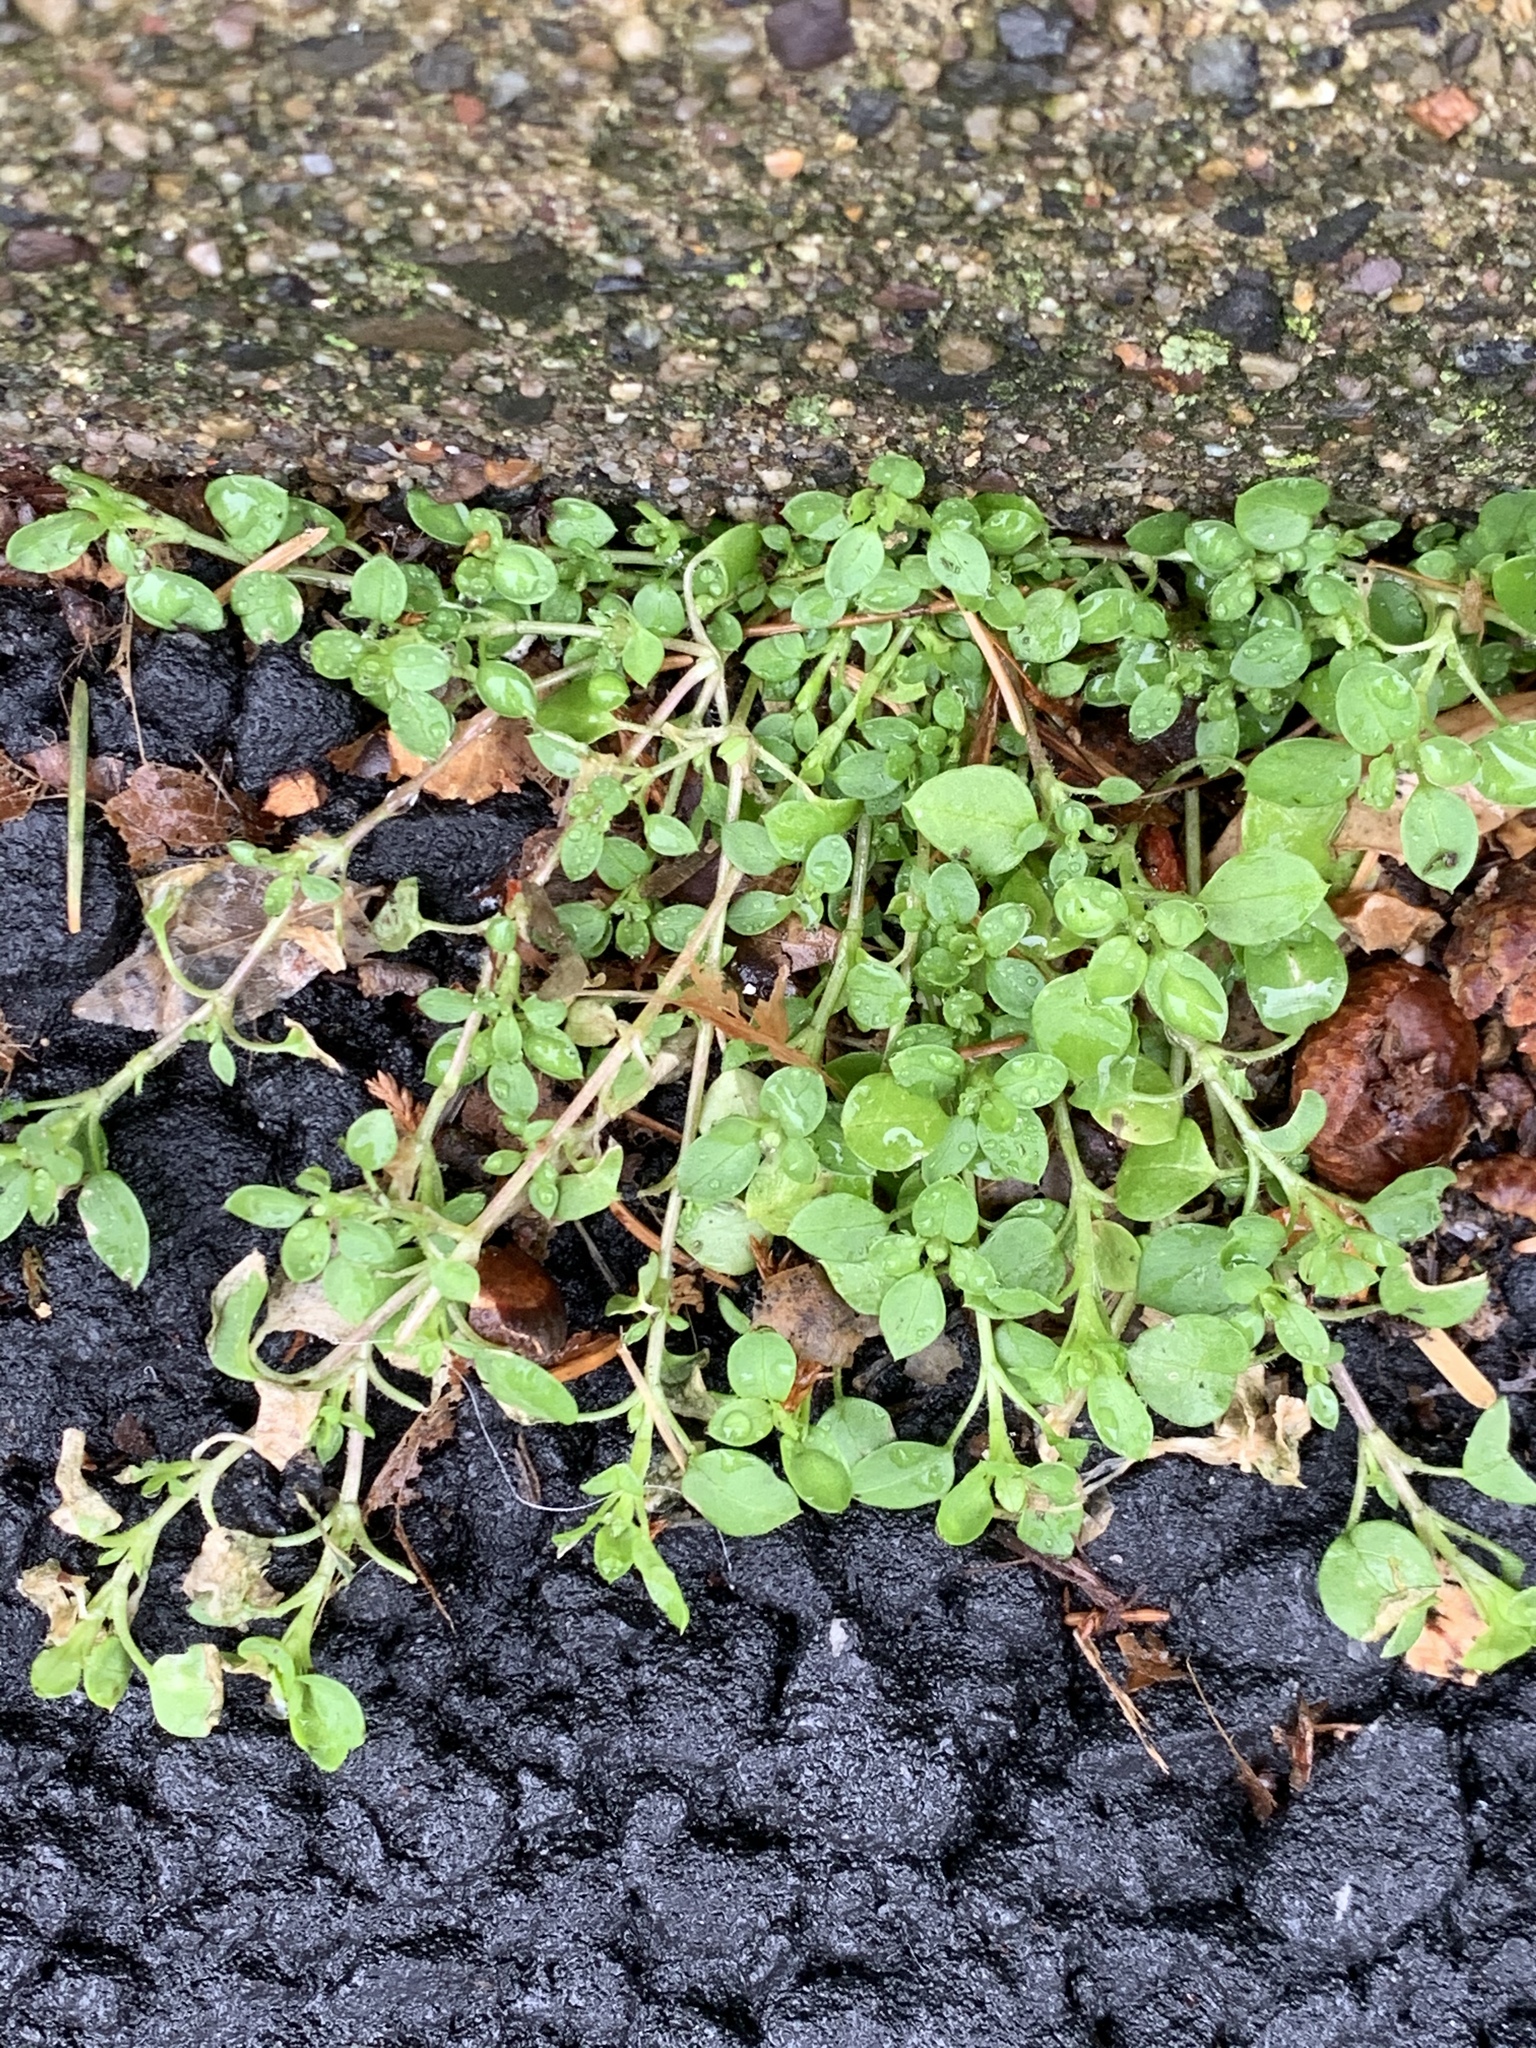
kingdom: Plantae
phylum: Tracheophyta
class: Magnoliopsida
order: Caryophyllales
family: Caryophyllaceae
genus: Stellaria
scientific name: Stellaria media
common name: Common chickweed
